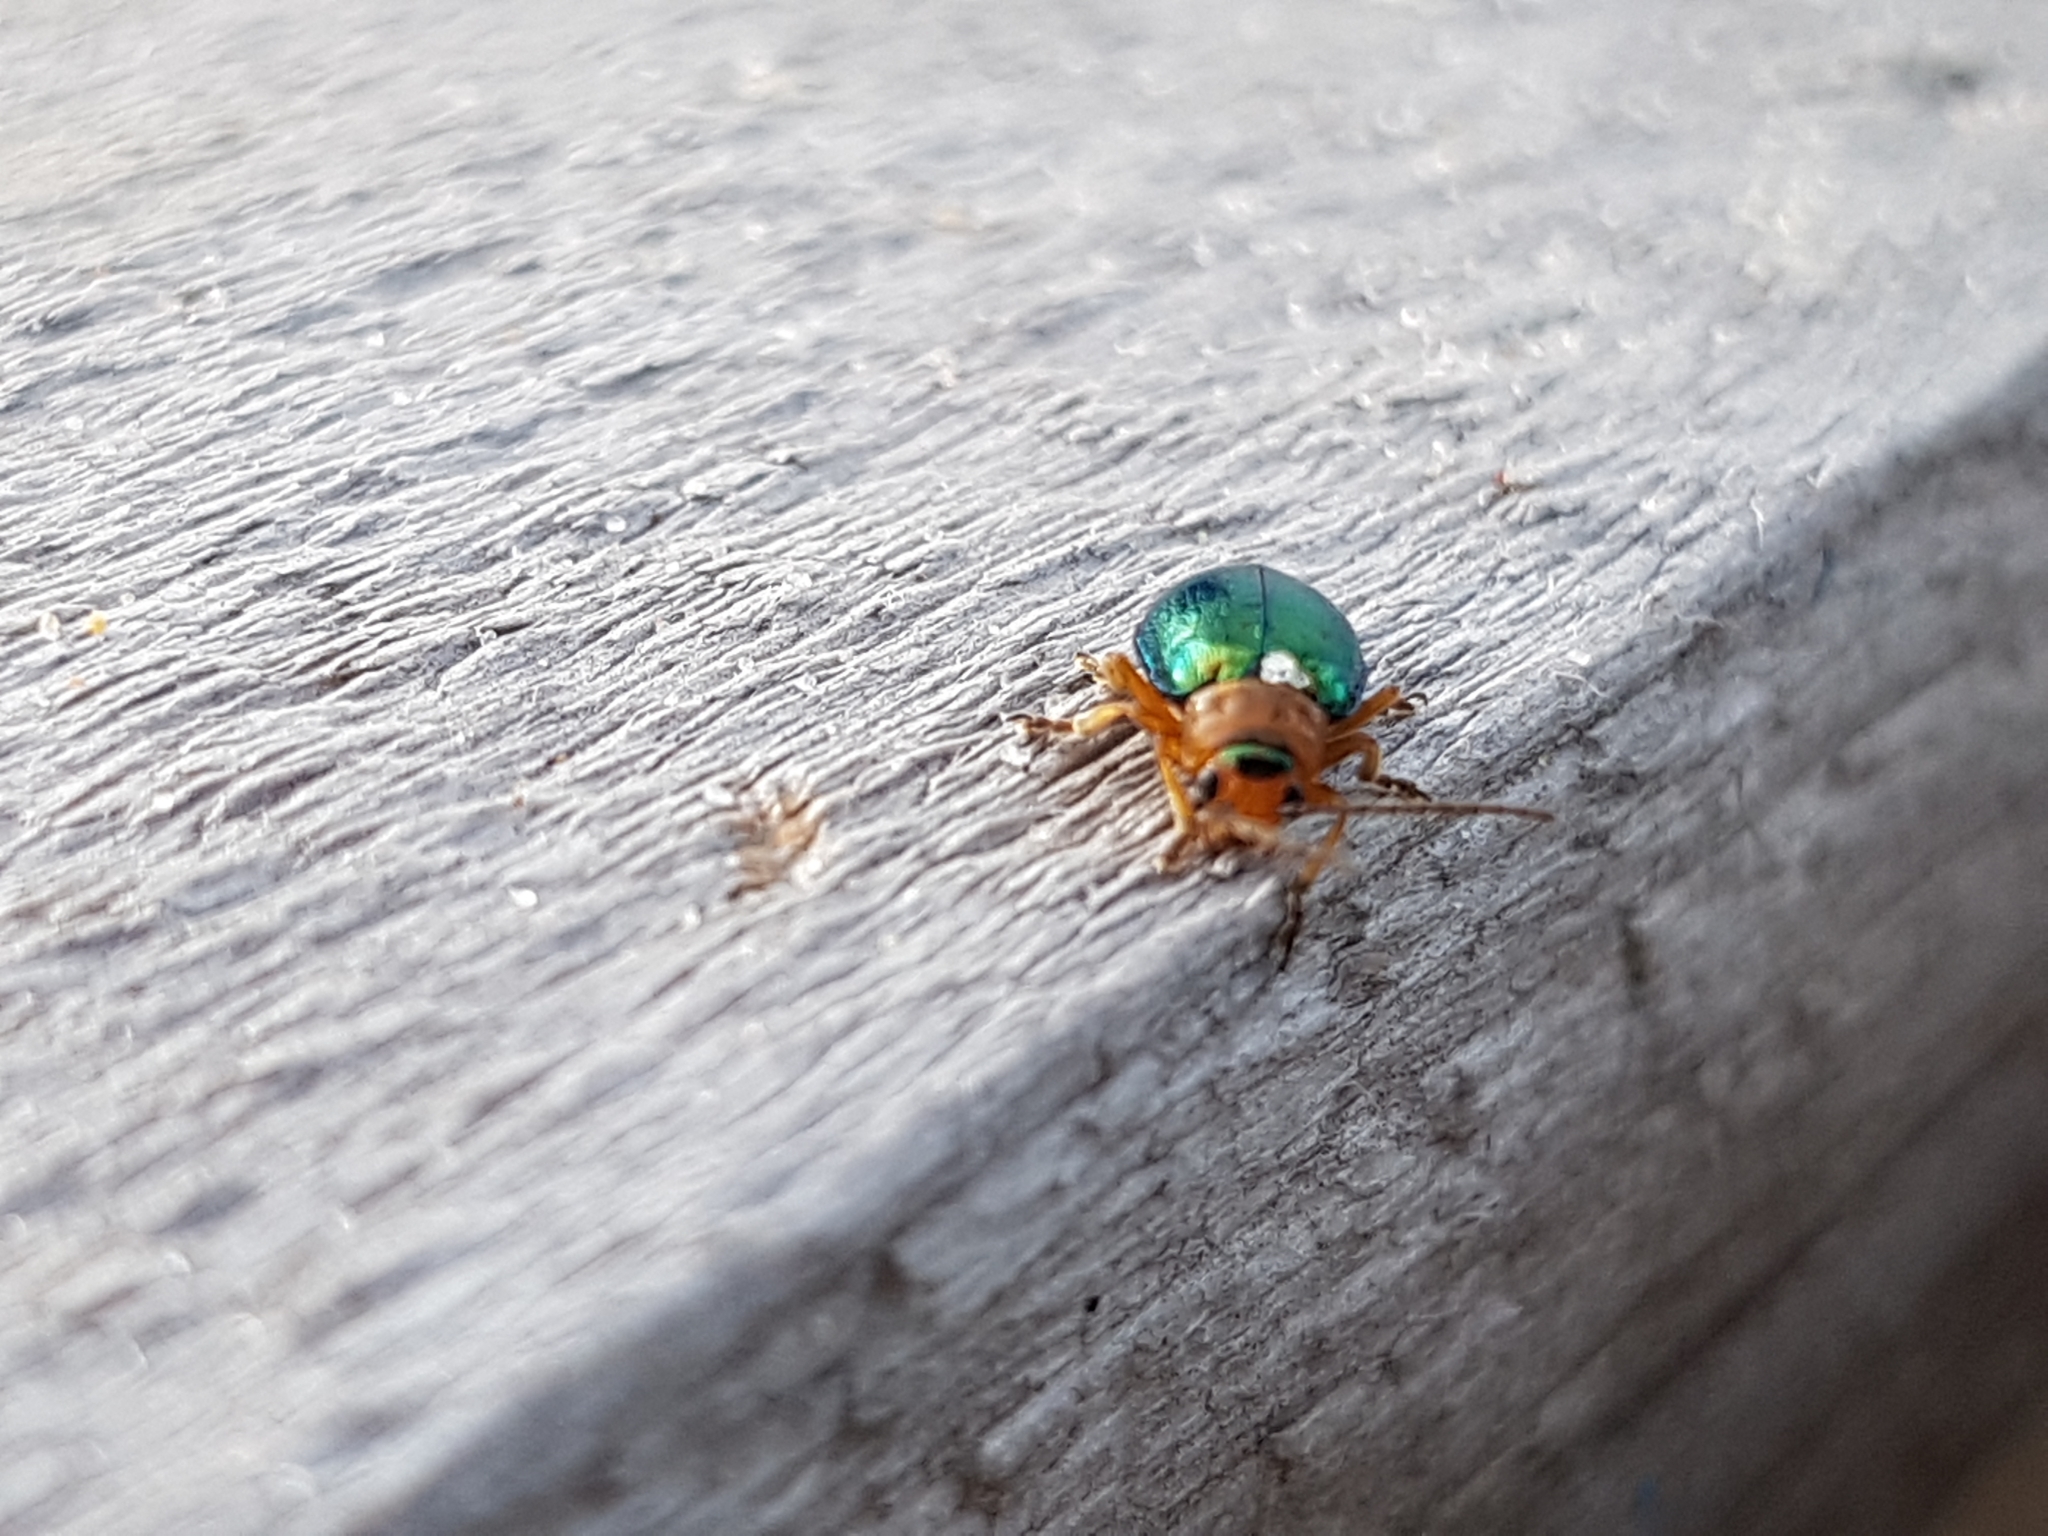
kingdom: Animalia
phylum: Arthropoda
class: Insecta
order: Coleoptera
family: Chrysomelidae
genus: Sermylassa
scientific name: Sermylassa halensis
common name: Leaf beetle
